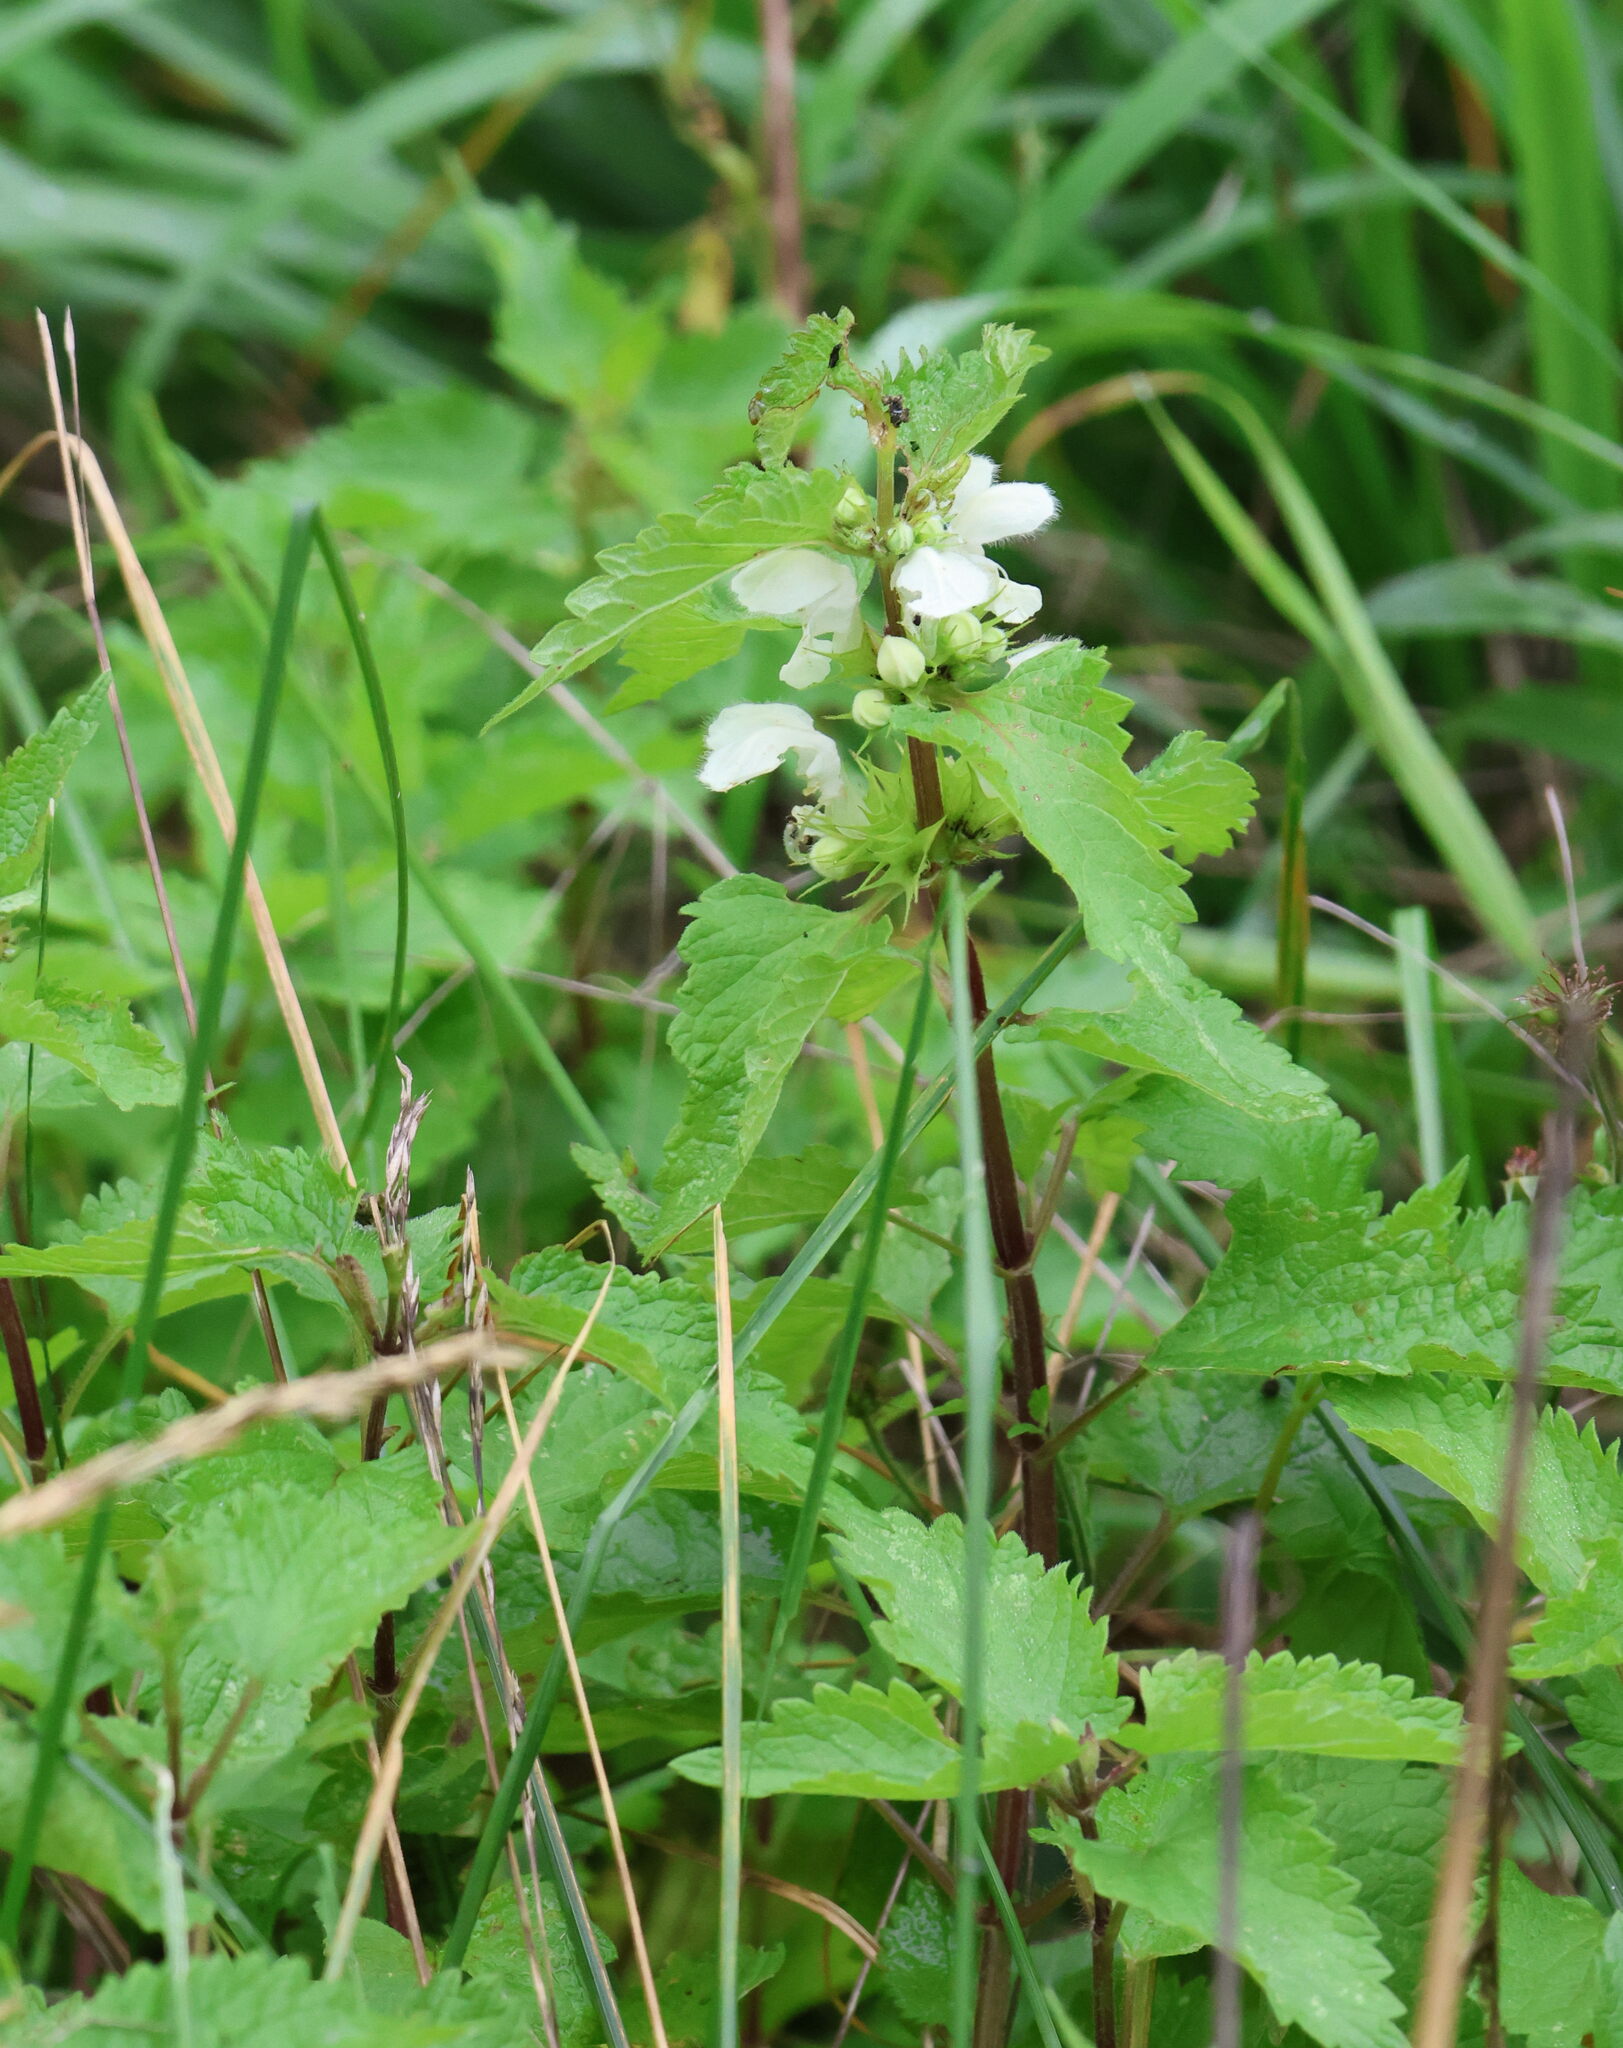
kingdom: Plantae
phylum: Tracheophyta
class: Magnoliopsida
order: Lamiales
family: Lamiaceae
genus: Lamium
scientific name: Lamium album
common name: White dead-nettle
